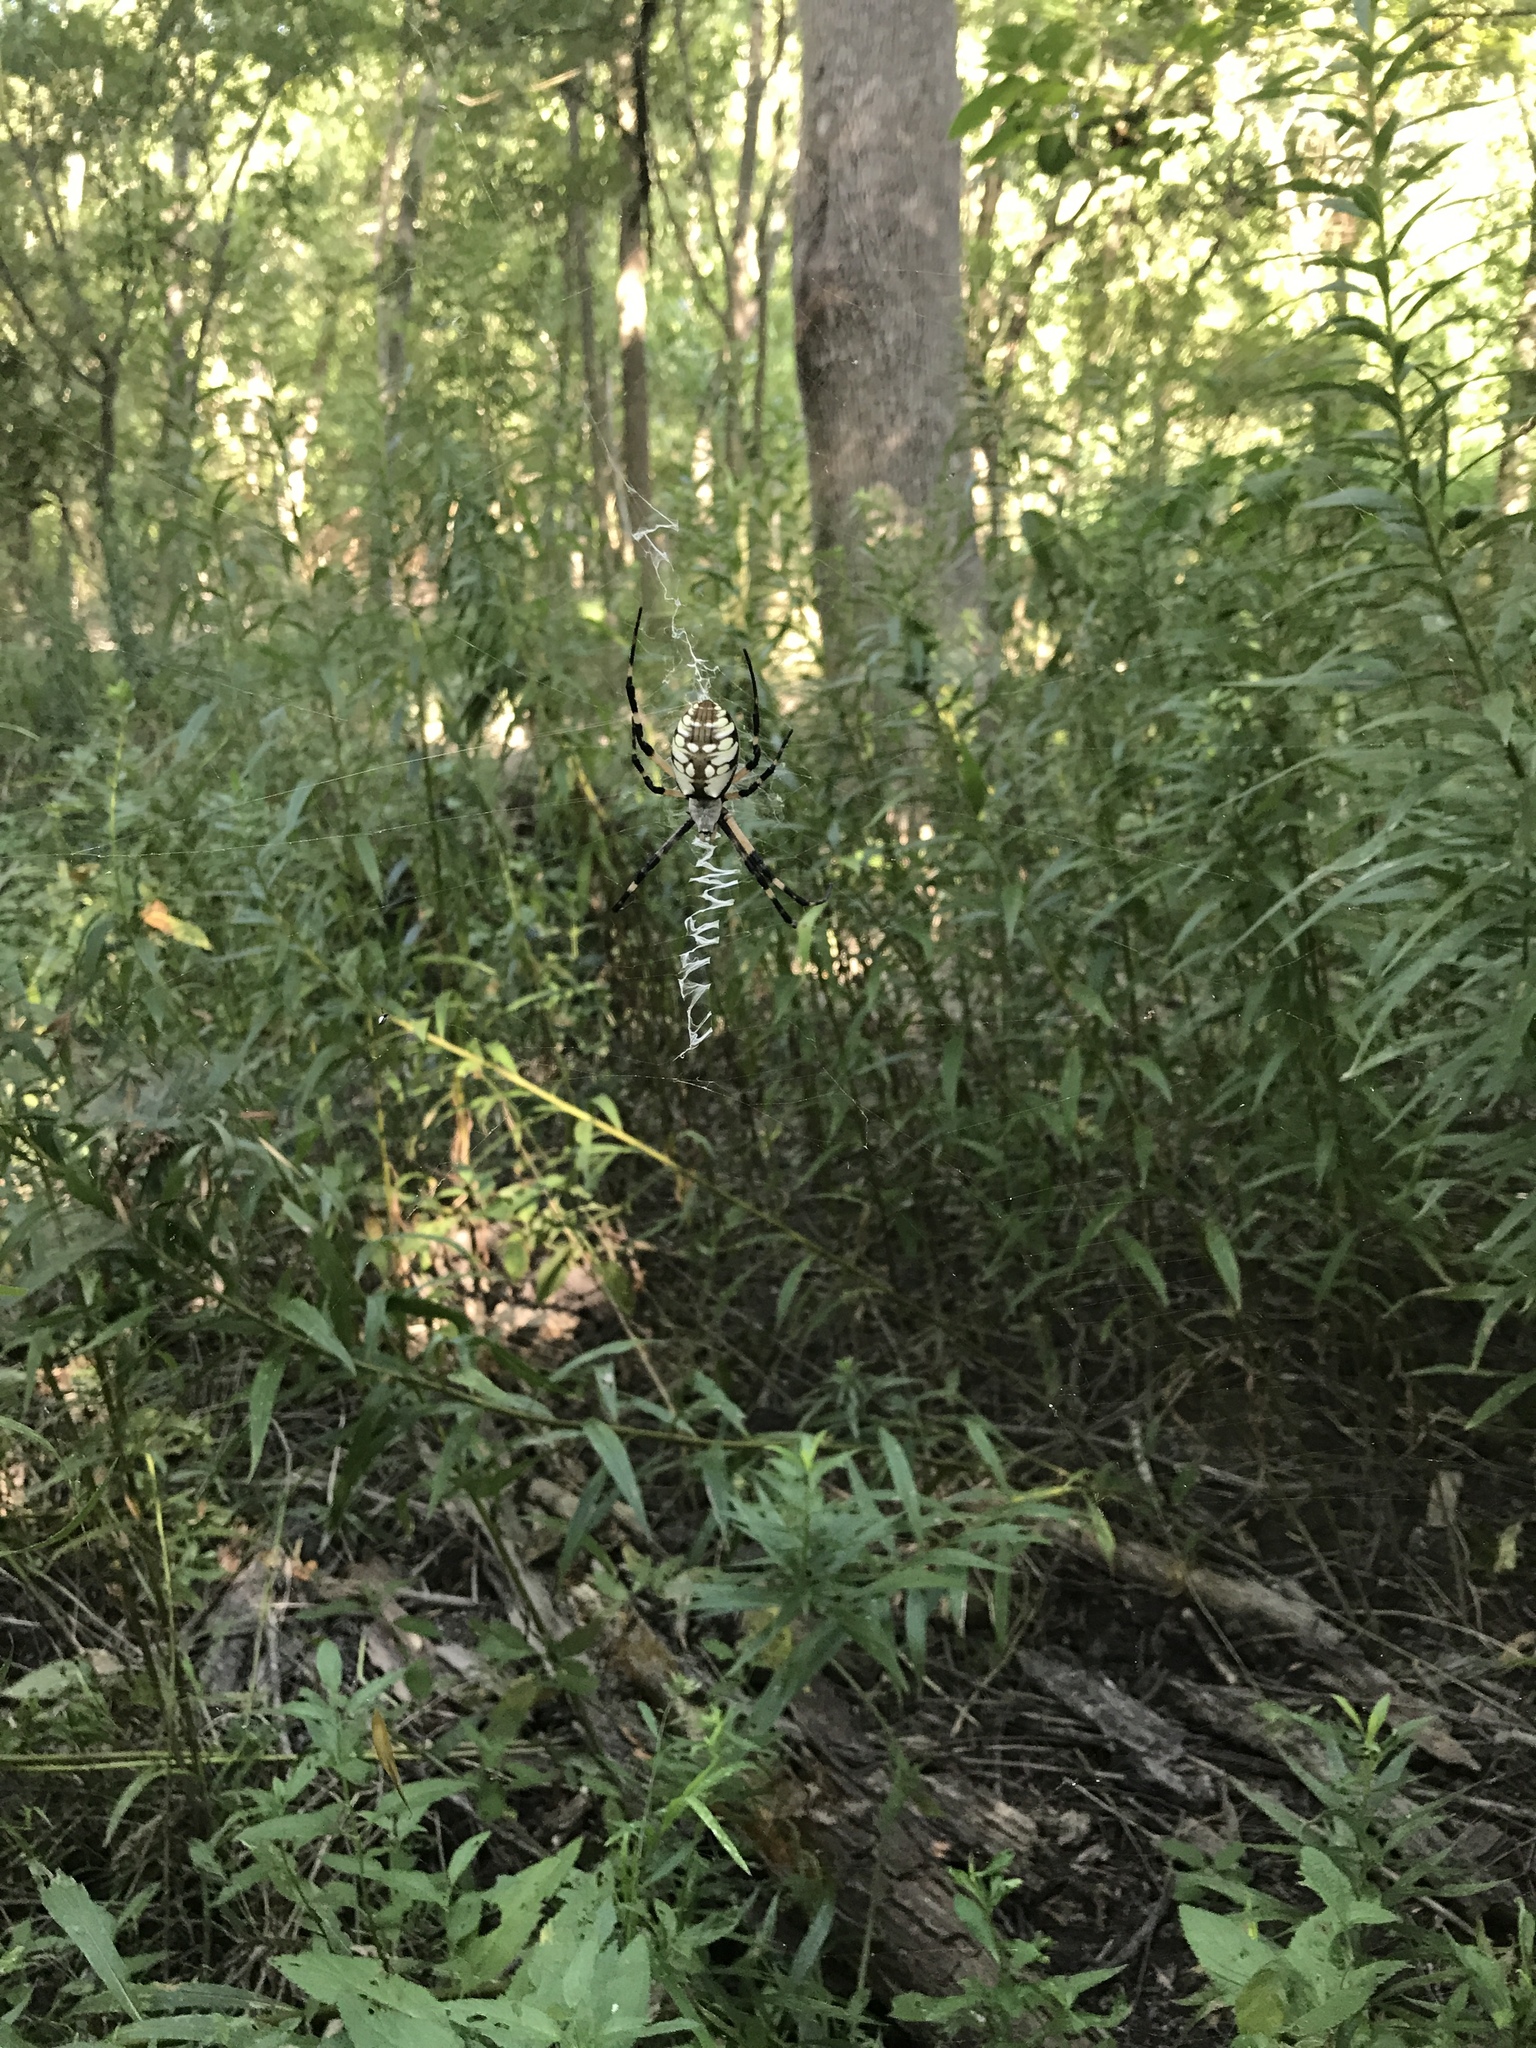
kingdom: Animalia
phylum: Arthropoda
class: Arachnida
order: Araneae
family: Araneidae
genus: Argiope
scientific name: Argiope aurantia
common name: Orb weavers
